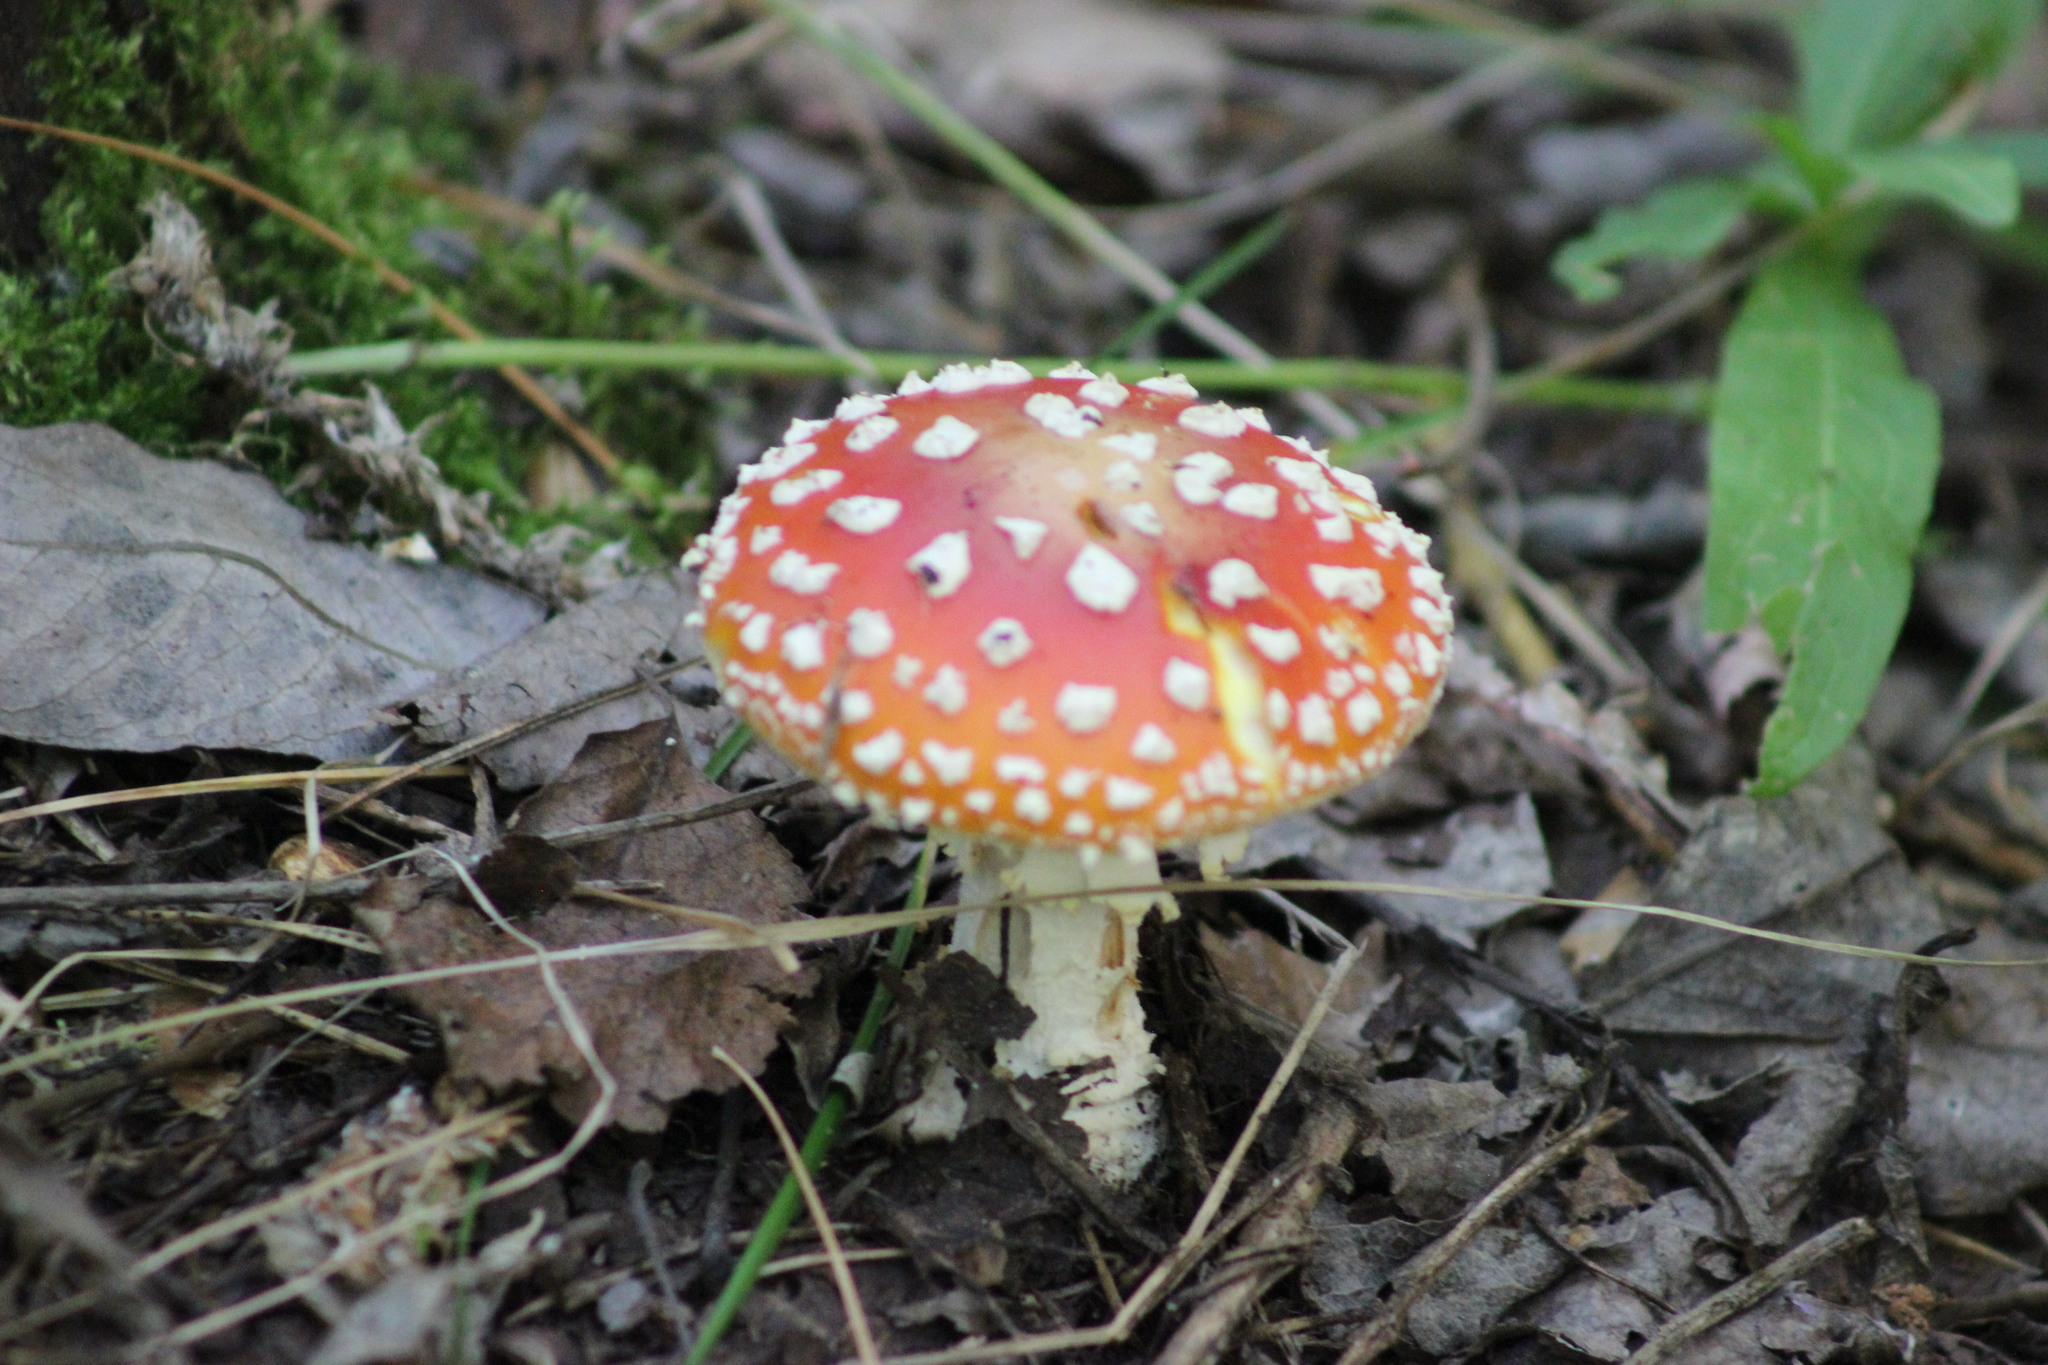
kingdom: Fungi
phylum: Basidiomycota
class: Agaricomycetes
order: Agaricales
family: Amanitaceae
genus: Amanita
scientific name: Amanita muscaria
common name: Fly agaric
